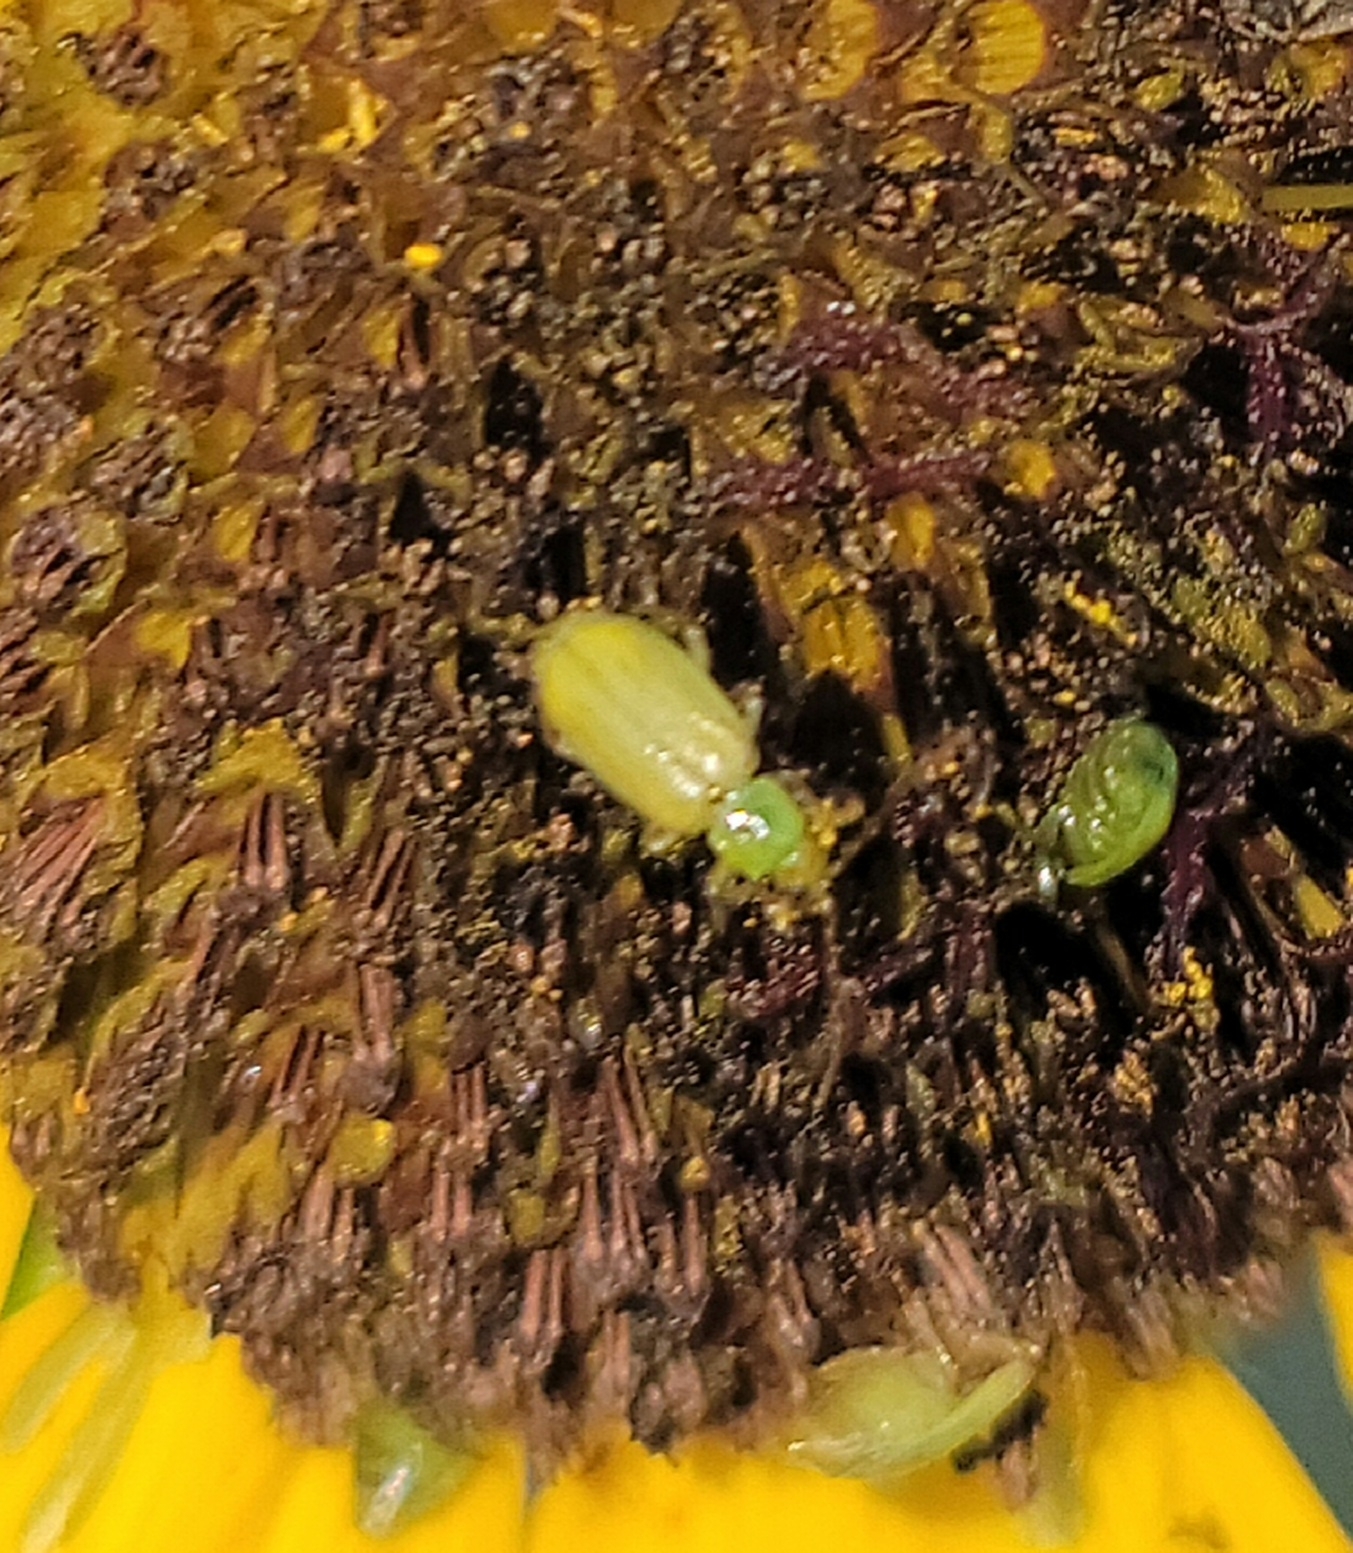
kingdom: Animalia
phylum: Arthropoda
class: Insecta
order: Coleoptera
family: Chrysomelidae
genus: Diabrotica
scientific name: Diabrotica barberi
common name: Northern corn rootworm
